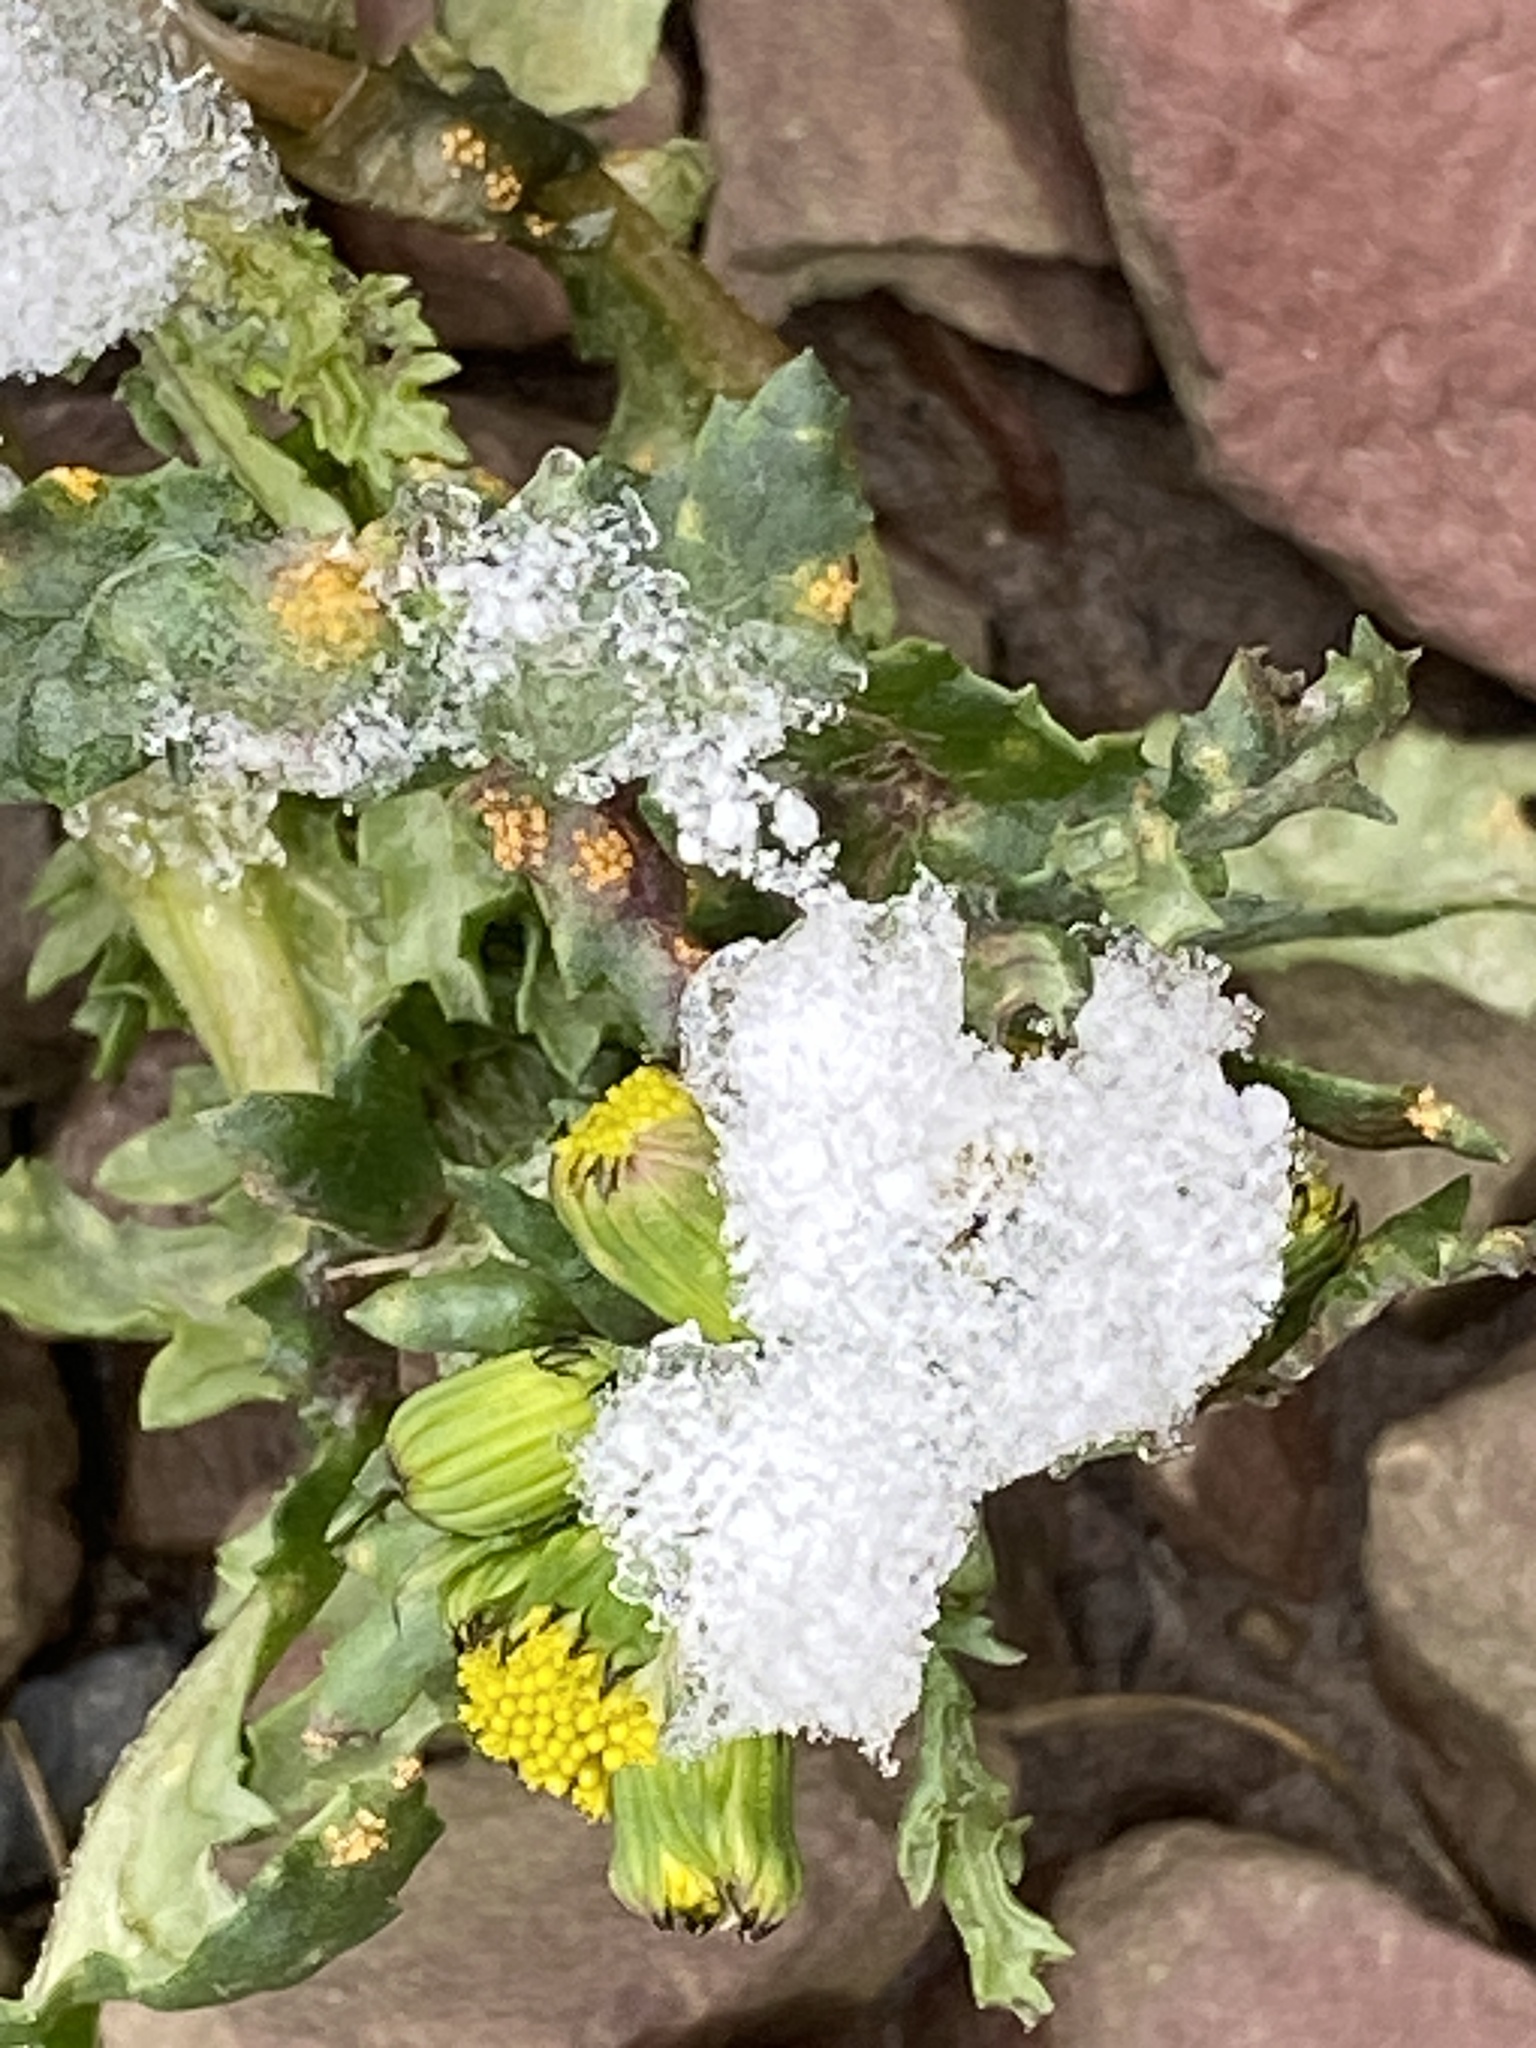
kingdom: Plantae
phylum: Tracheophyta
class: Magnoliopsida
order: Asterales
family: Asteraceae
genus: Senecio
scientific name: Senecio vulgaris
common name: Old-man-in-the-spring
